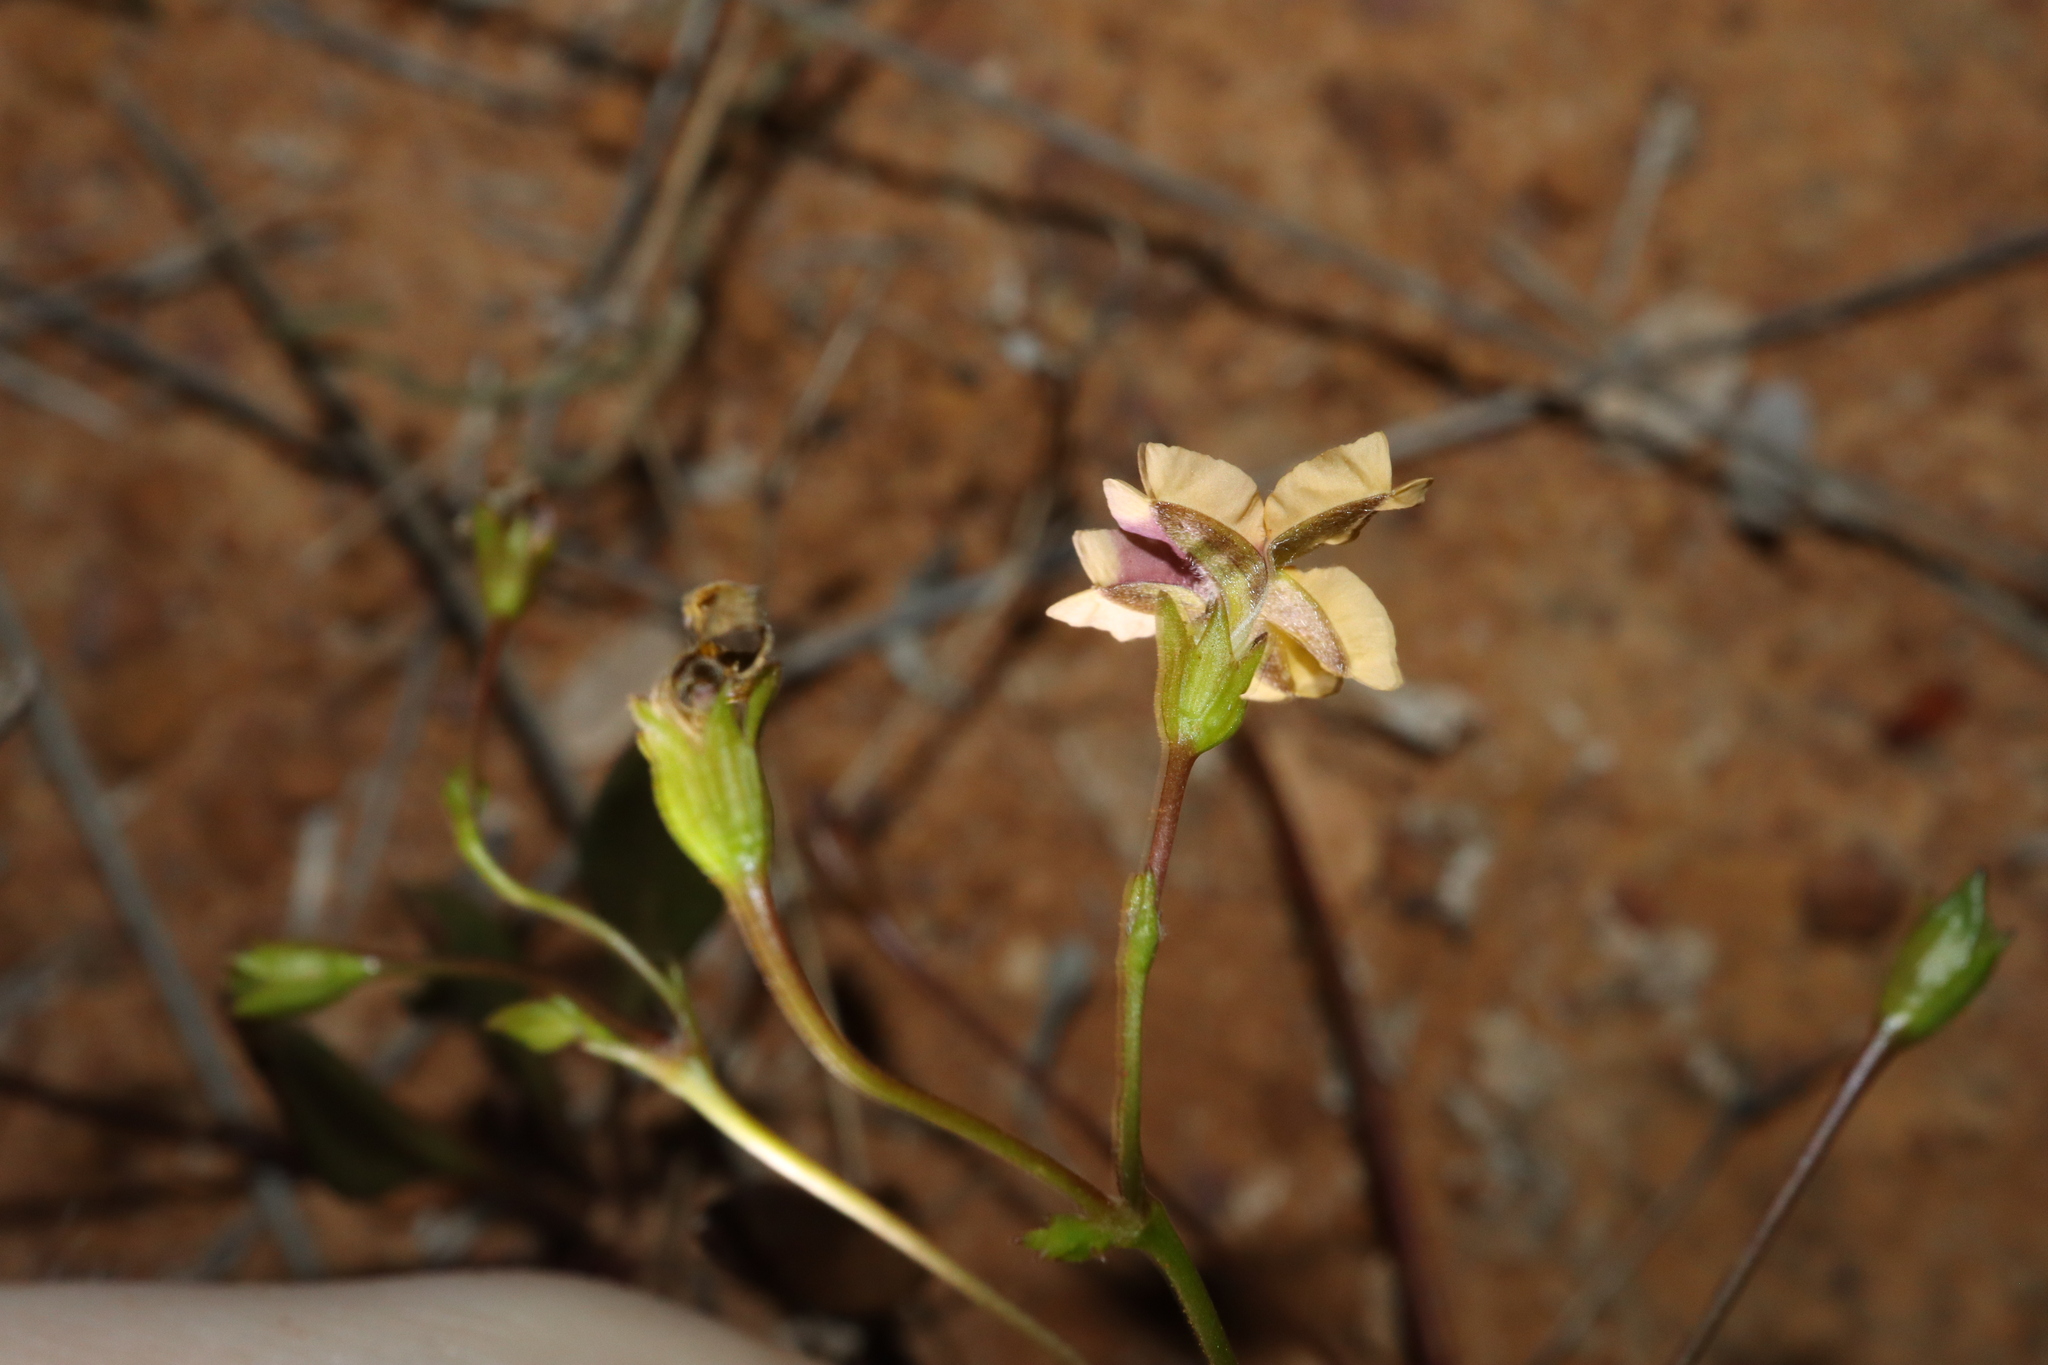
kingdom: Plantae
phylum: Tracheophyta
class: Magnoliopsida
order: Asterales
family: Goodeniaceae
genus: Goodenia
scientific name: Goodenia trinervis
